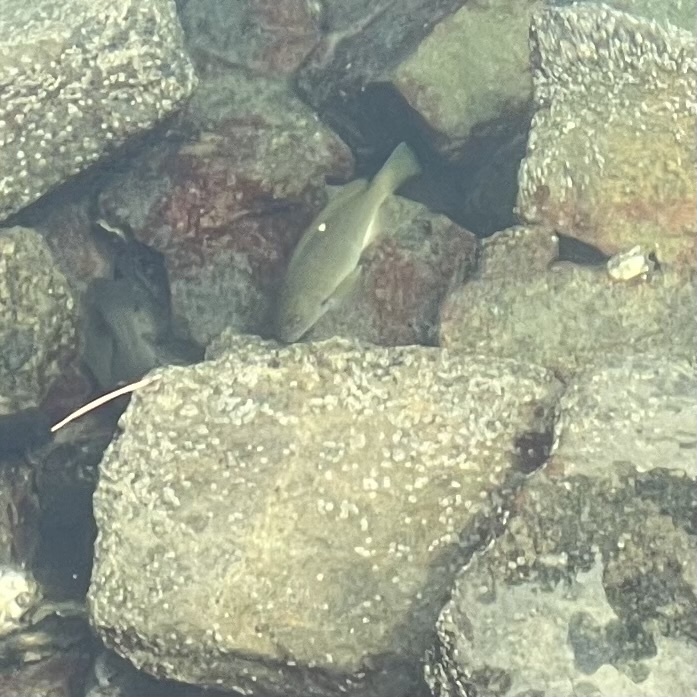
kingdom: Animalia
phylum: Chordata
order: Perciformes
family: Kyphosidae
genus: Girella
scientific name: Girella nigricans
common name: Opaleye
